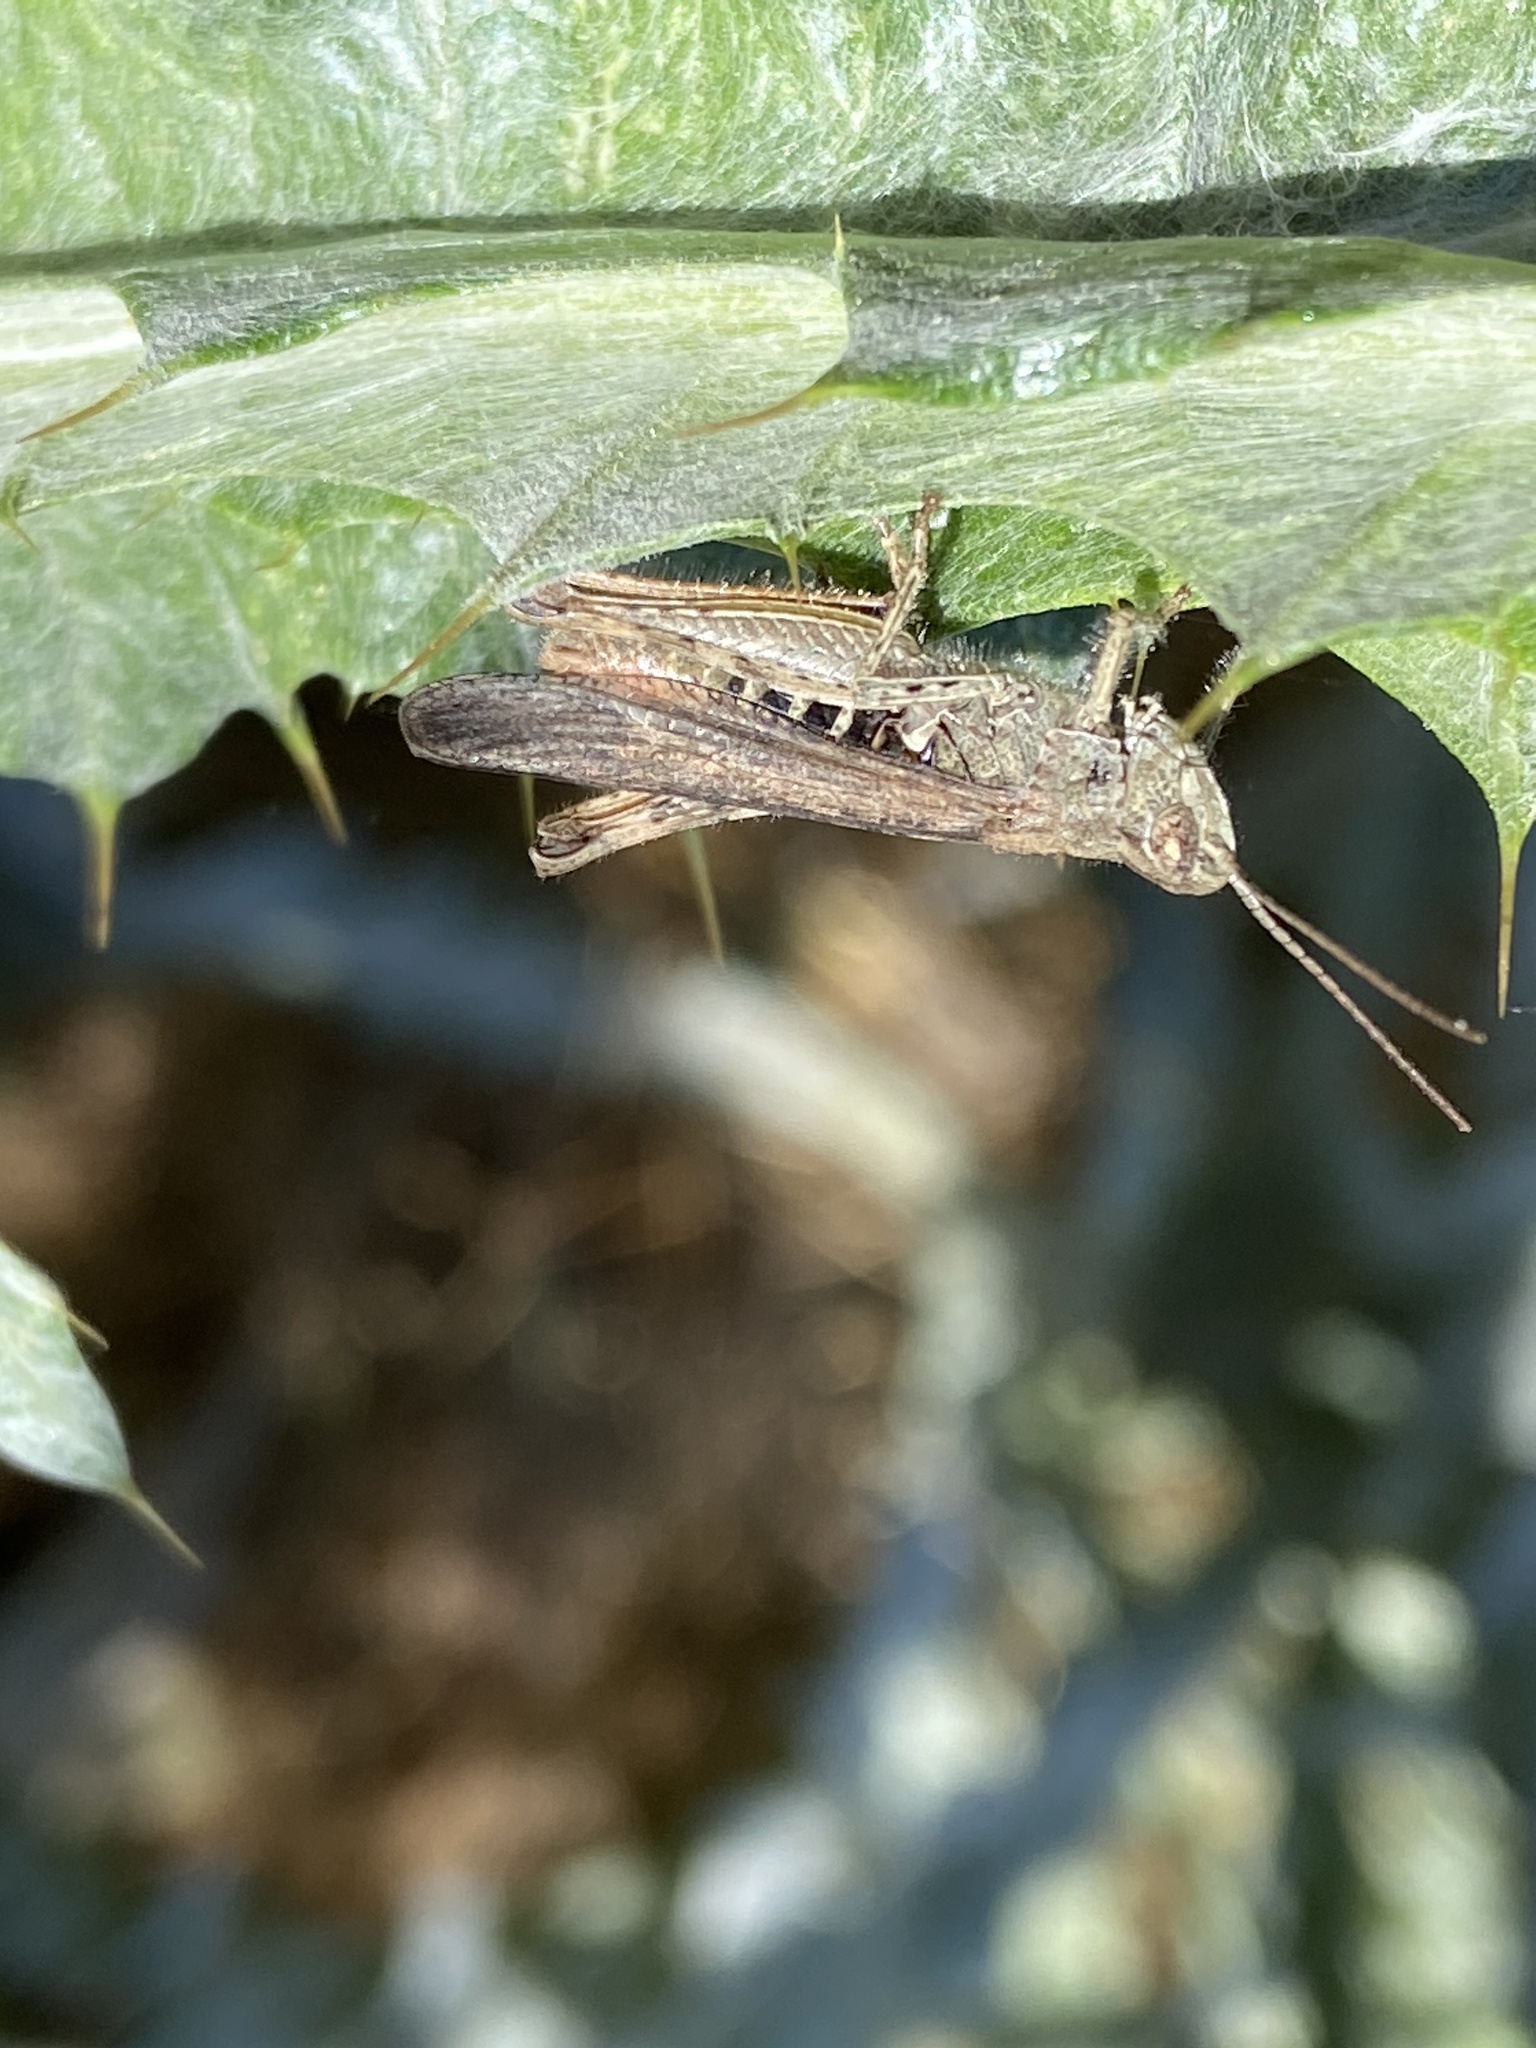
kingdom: Animalia
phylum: Arthropoda
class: Insecta
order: Orthoptera
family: Acrididae
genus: Chorthippus
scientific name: Chorthippus brunneus
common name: Field grasshopper
